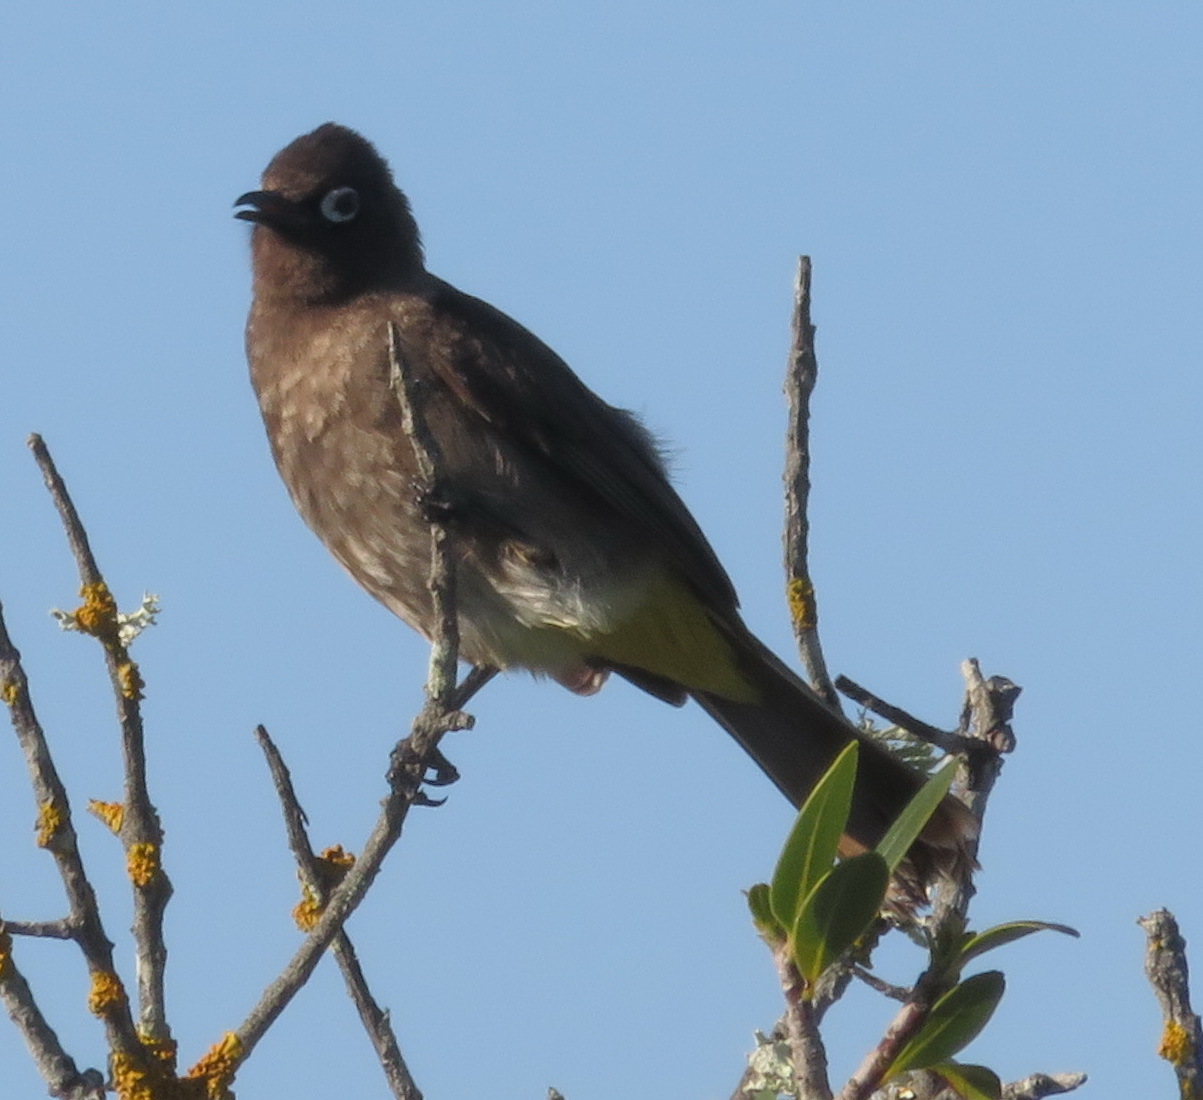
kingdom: Animalia
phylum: Chordata
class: Aves
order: Passeriformes
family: Pycnonotidae
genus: Pycnonotus
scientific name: Pycnonotus capensis
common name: Cape bulbul
